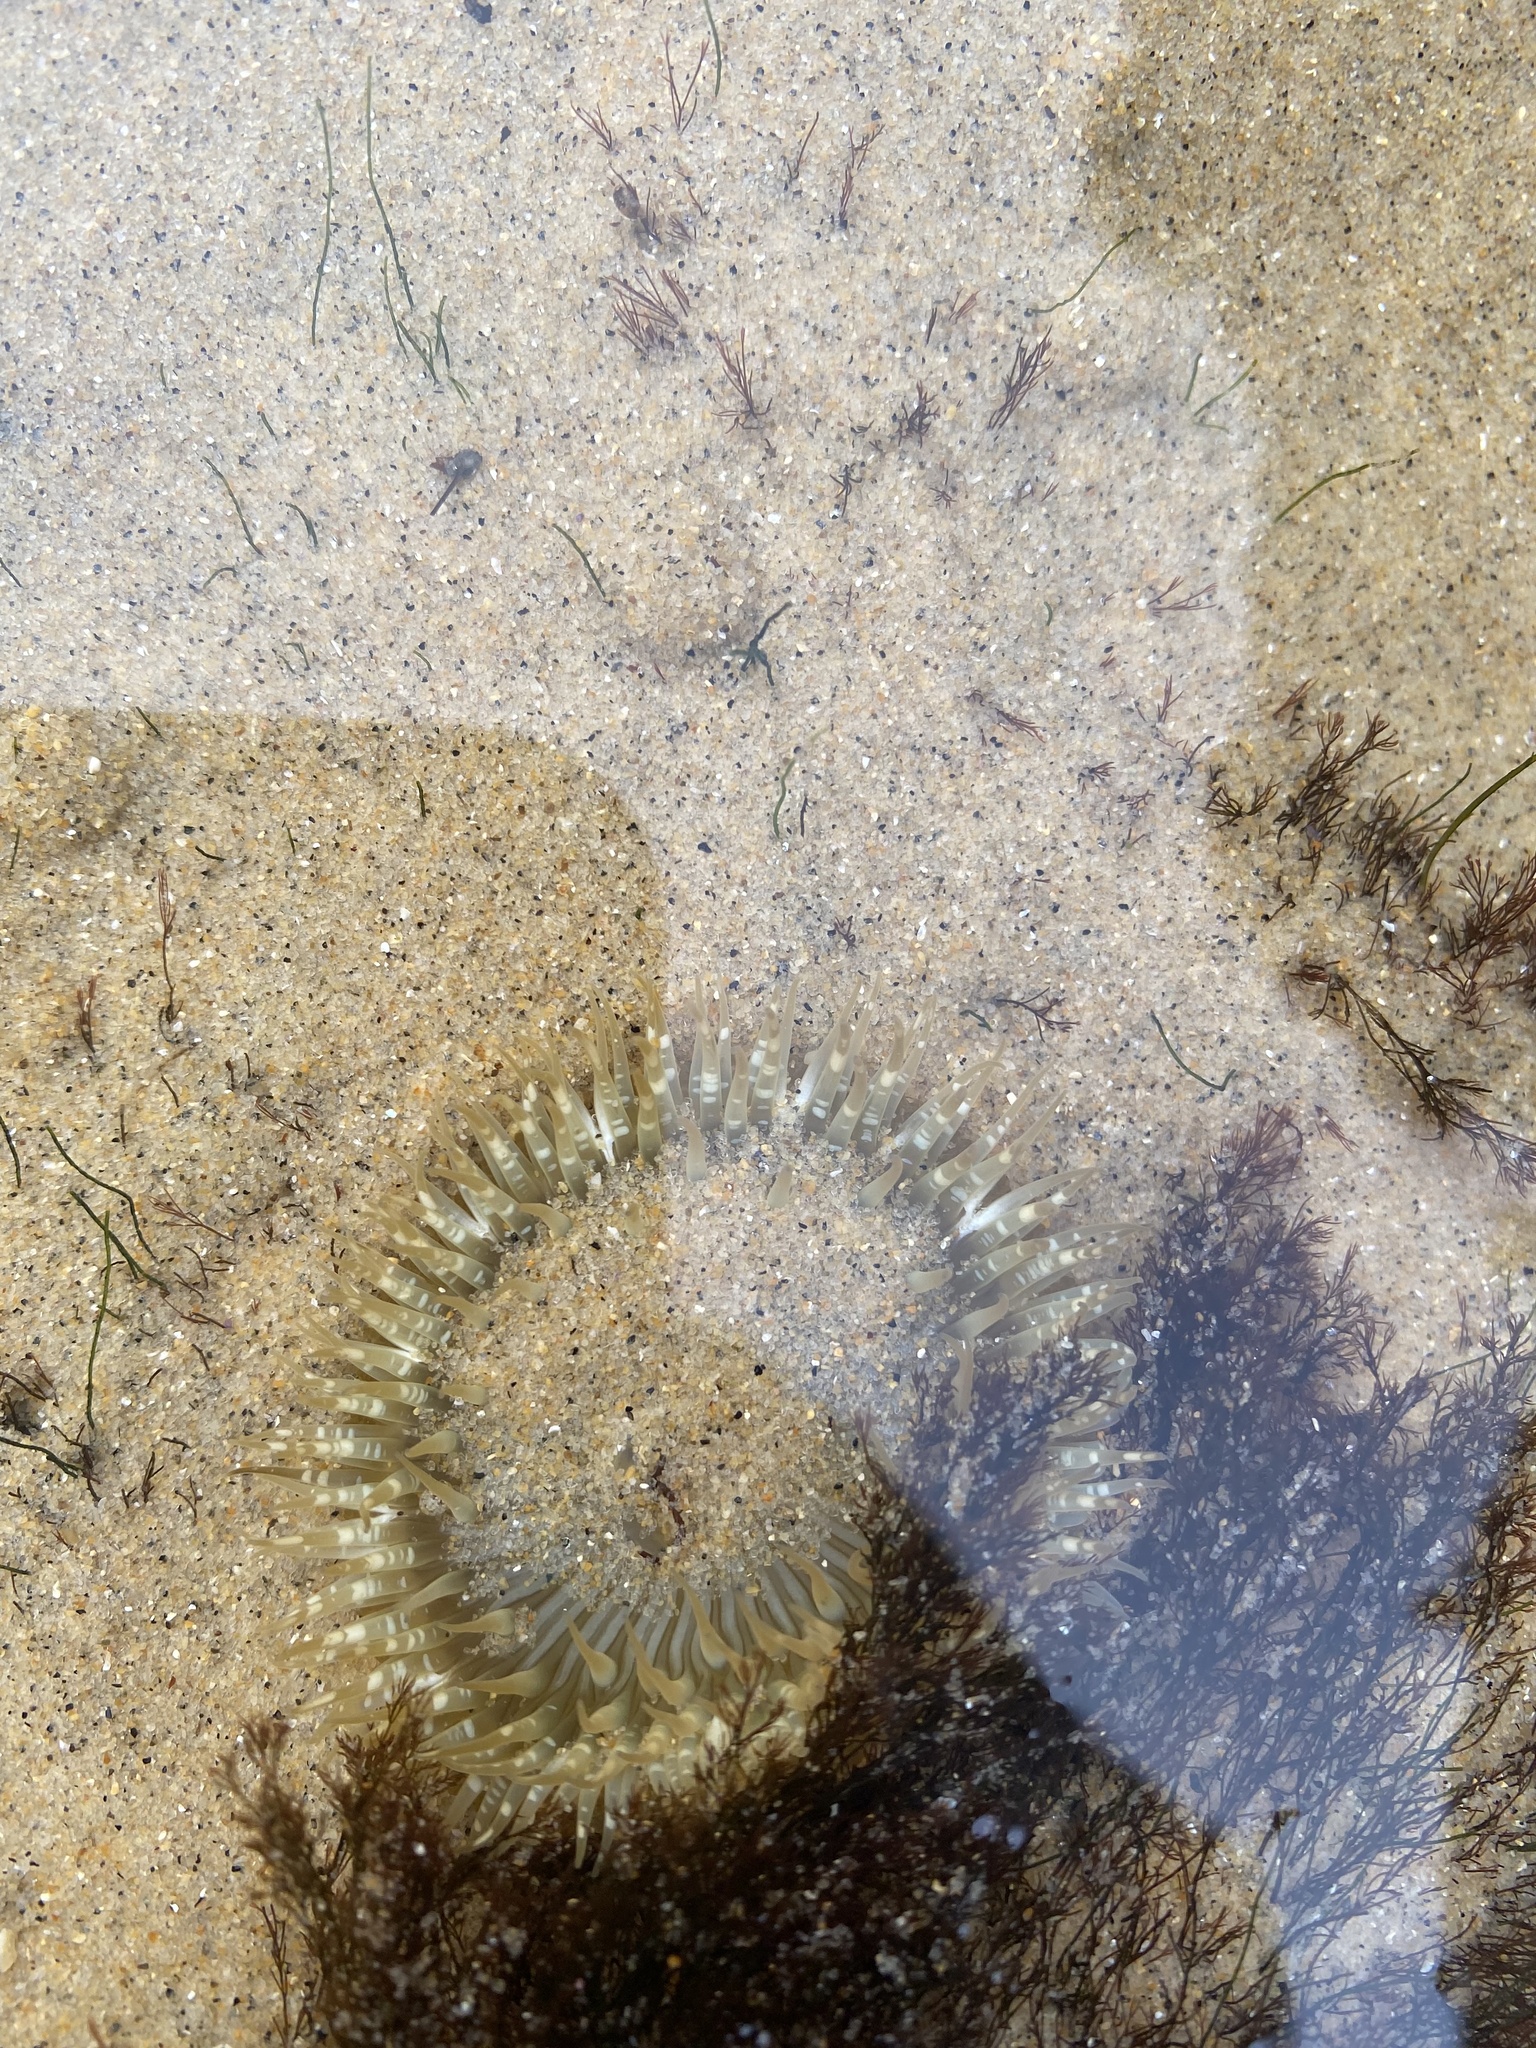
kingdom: Animalia
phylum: Cnidaria
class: Anthozoa
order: Actiniaria
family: Actiniidae
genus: Anthopleura
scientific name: Anthopleura sola
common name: Sun anemone
